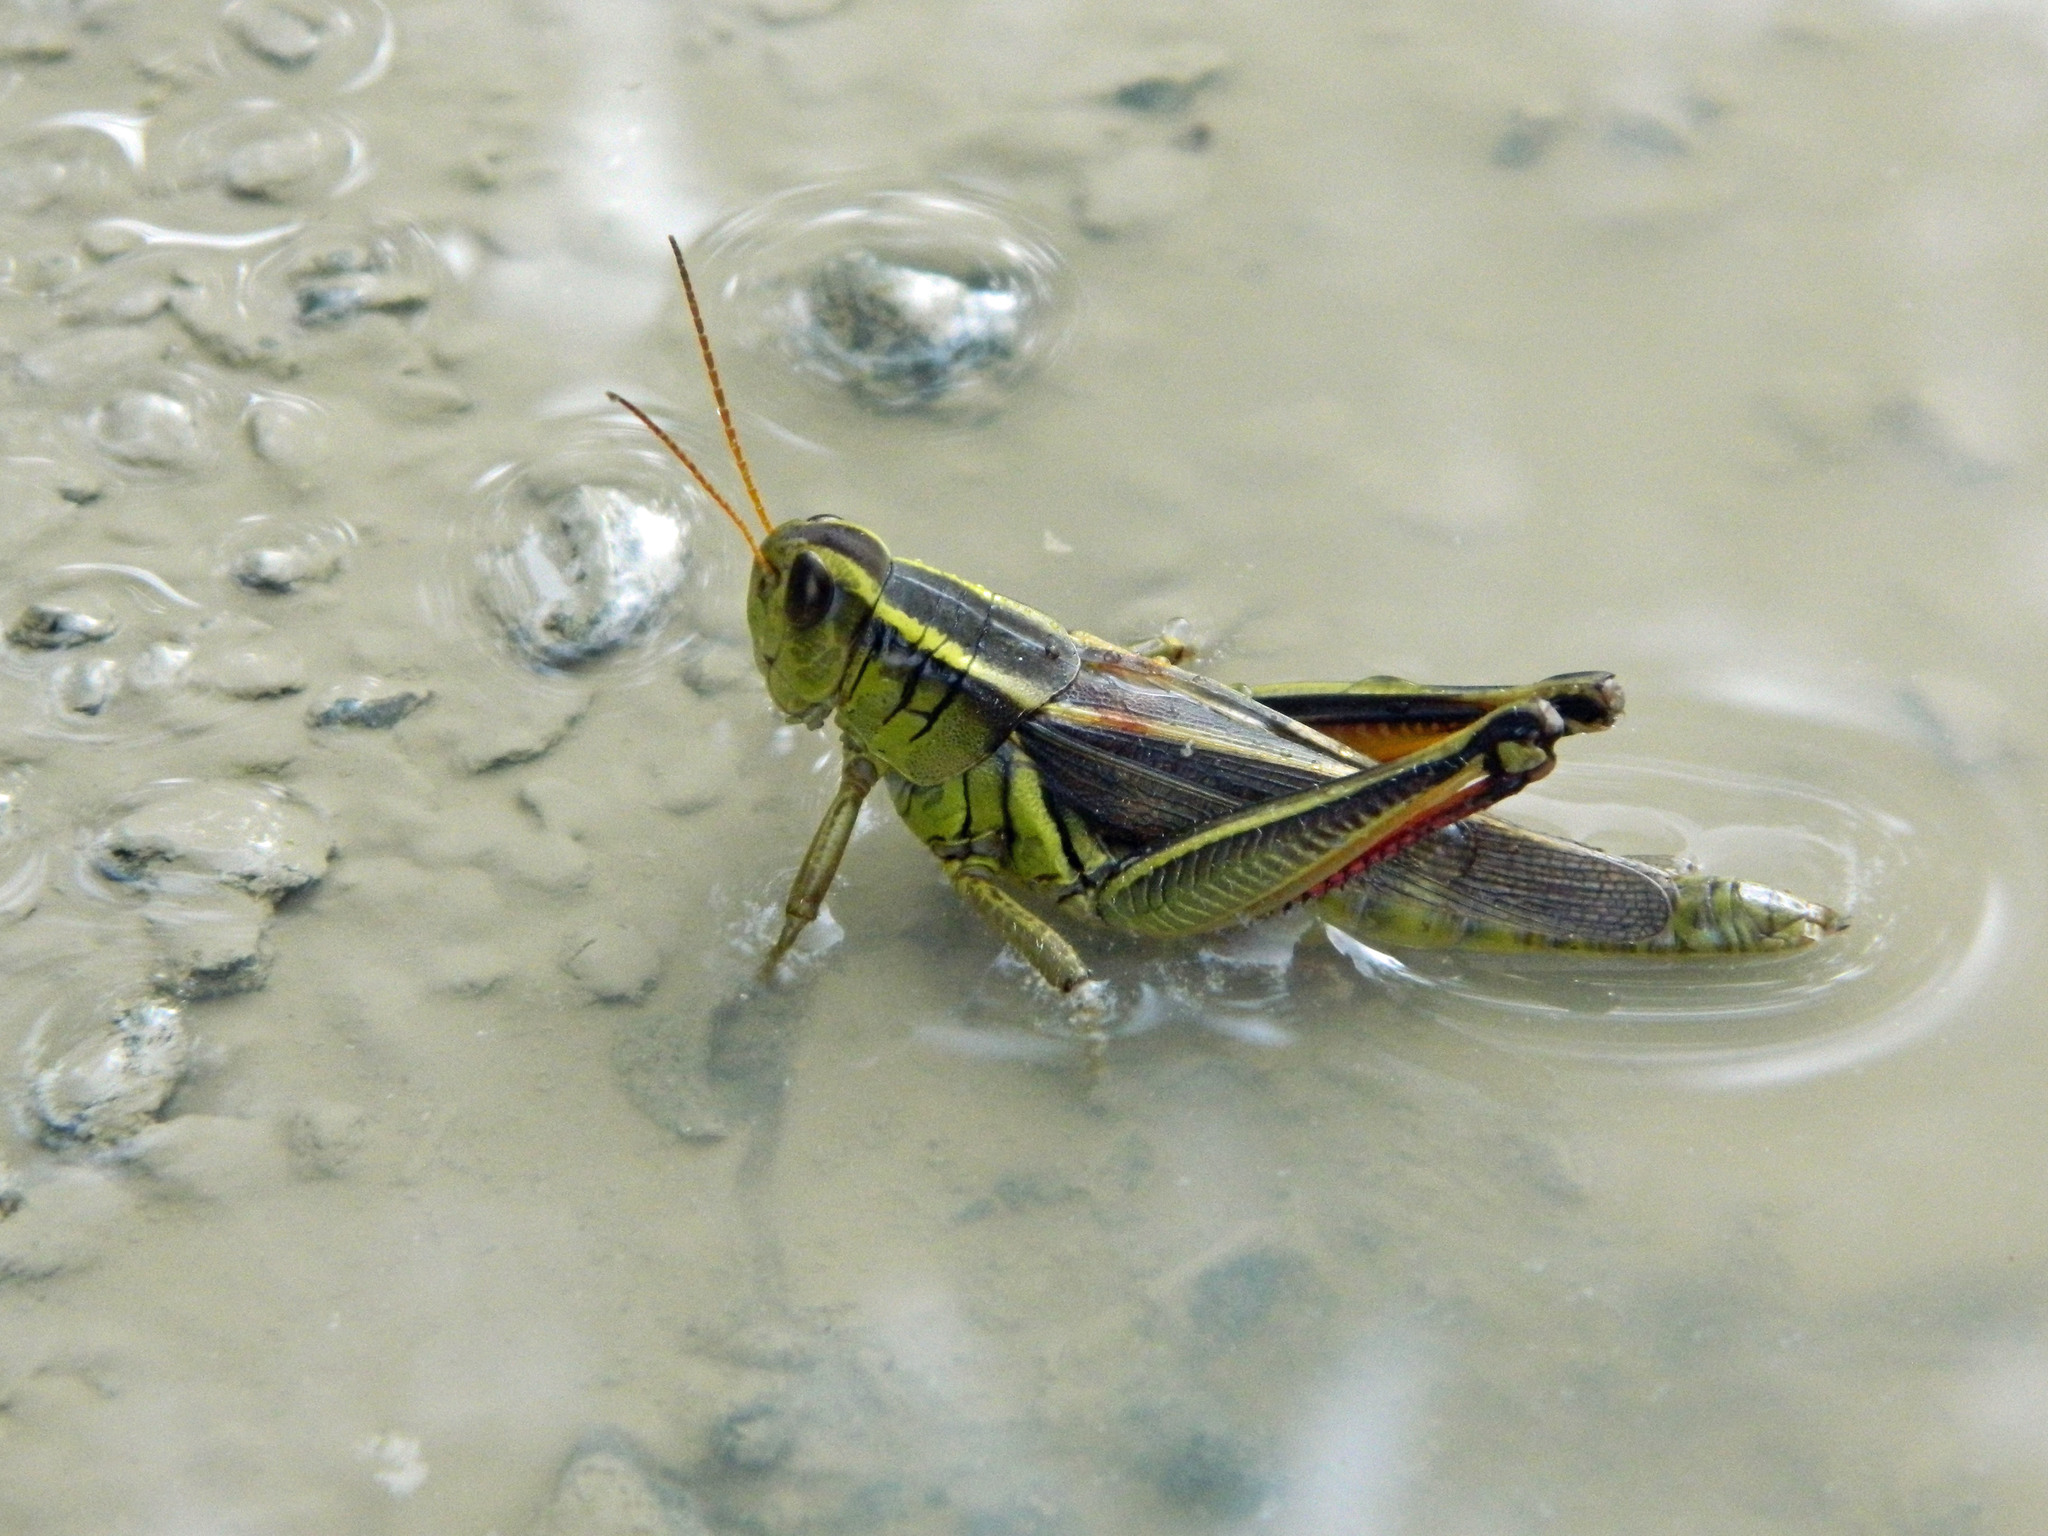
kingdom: Animalia
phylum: Arthropoda
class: Insecta
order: Orthoptera
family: Acrididae
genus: Melanoplus
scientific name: Melanoplus bivittatus
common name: Two-striped grasshopper
